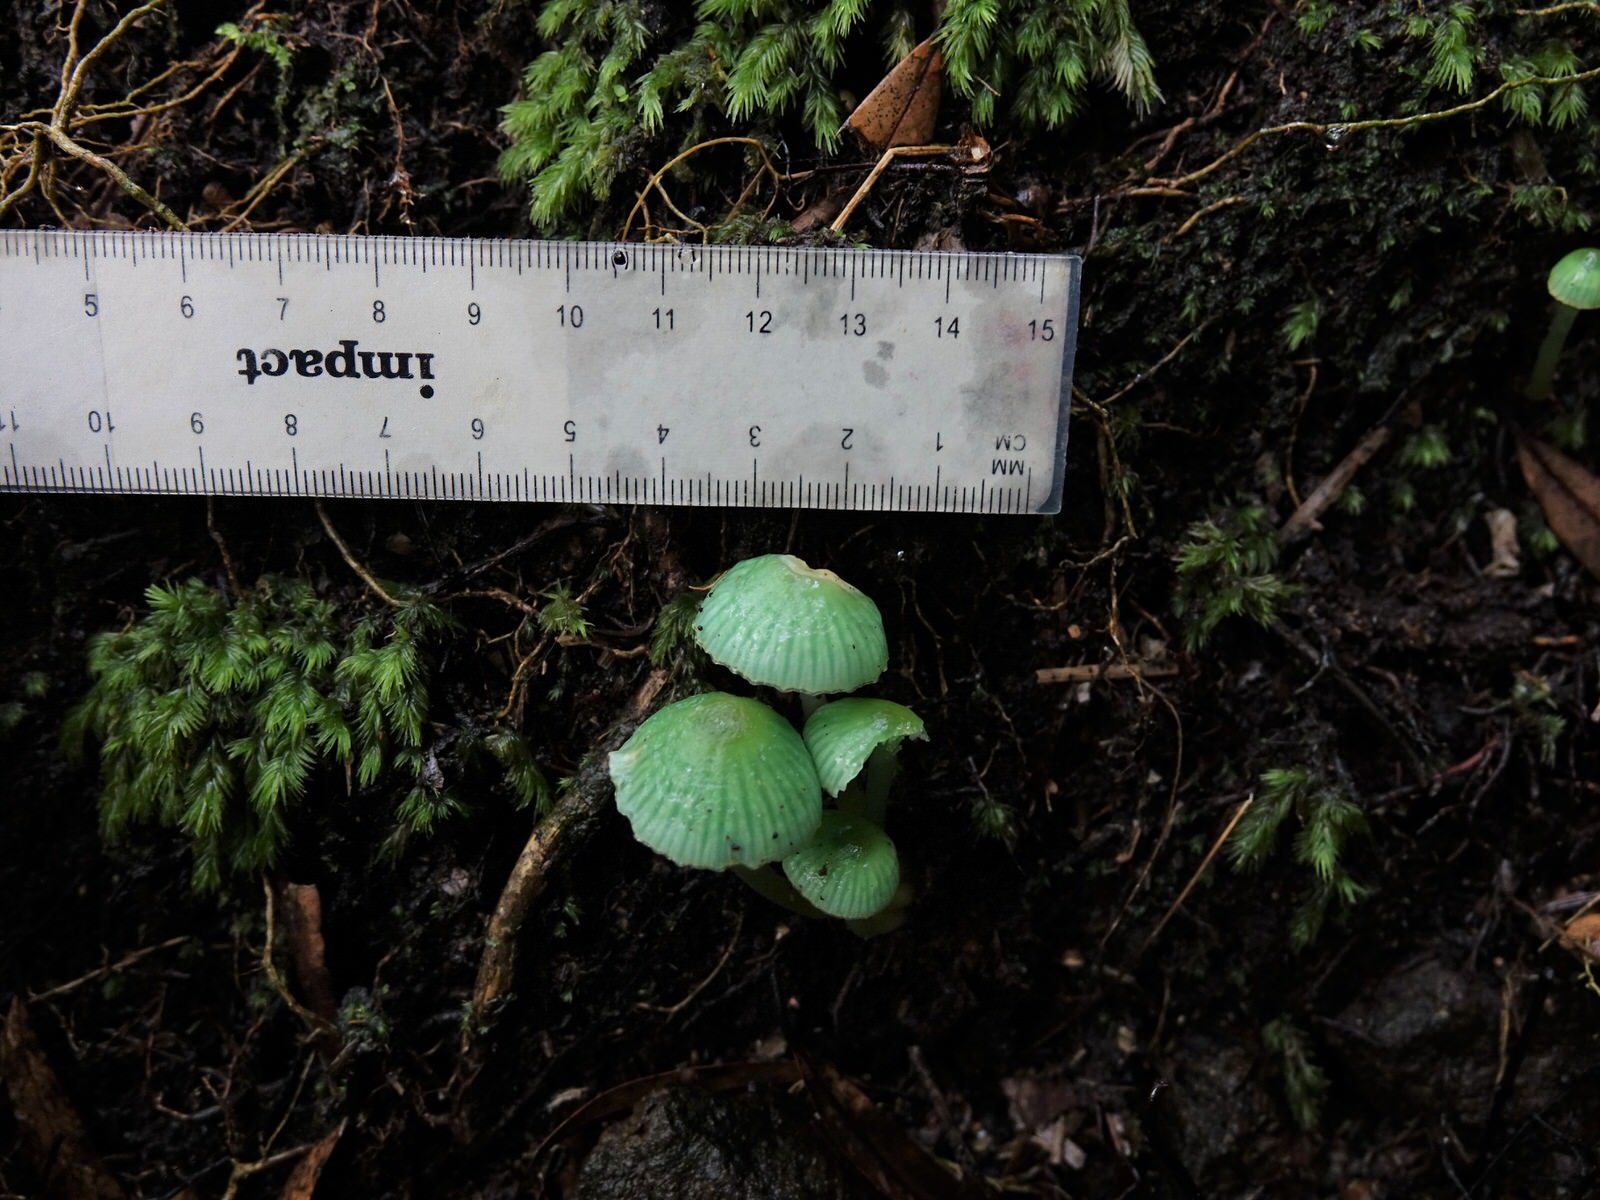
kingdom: Fungi
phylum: Basidiomycota
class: Agaricomycetes
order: Agaricales
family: Hygrophoraceae
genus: Gliophorus
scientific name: Gliophorus viridis
